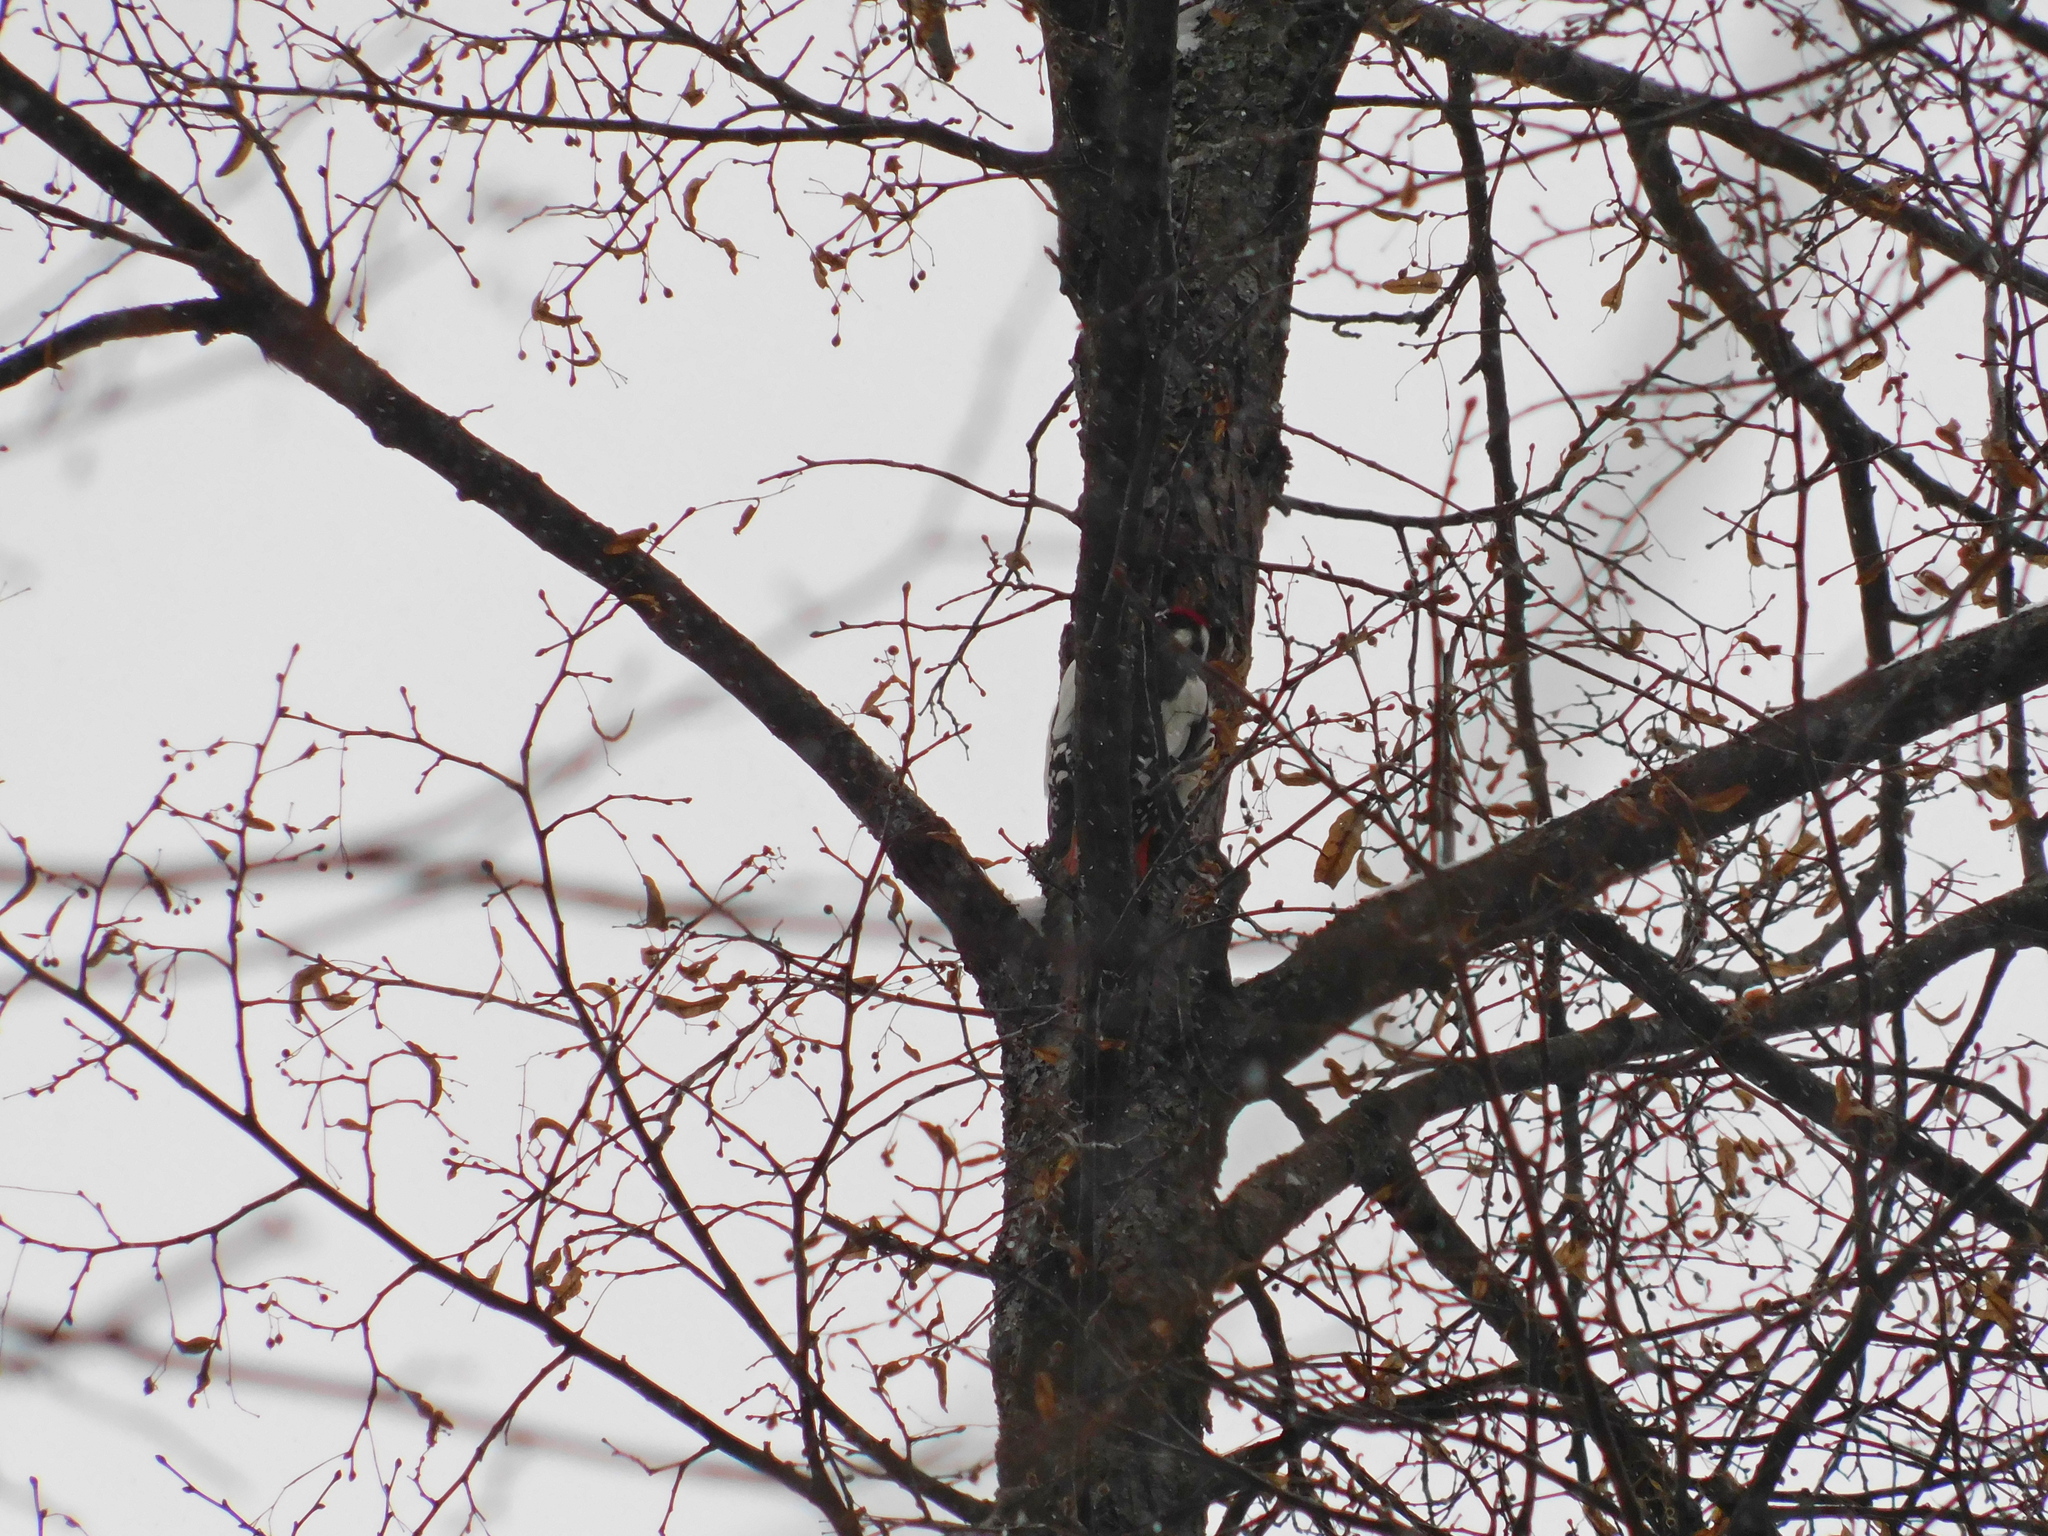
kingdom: Animalia
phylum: Chordata
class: Aves
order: Piciformes
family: Picidae
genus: Dendrocopos
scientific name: Dendrocopos major
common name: Great spotted woodpecker
